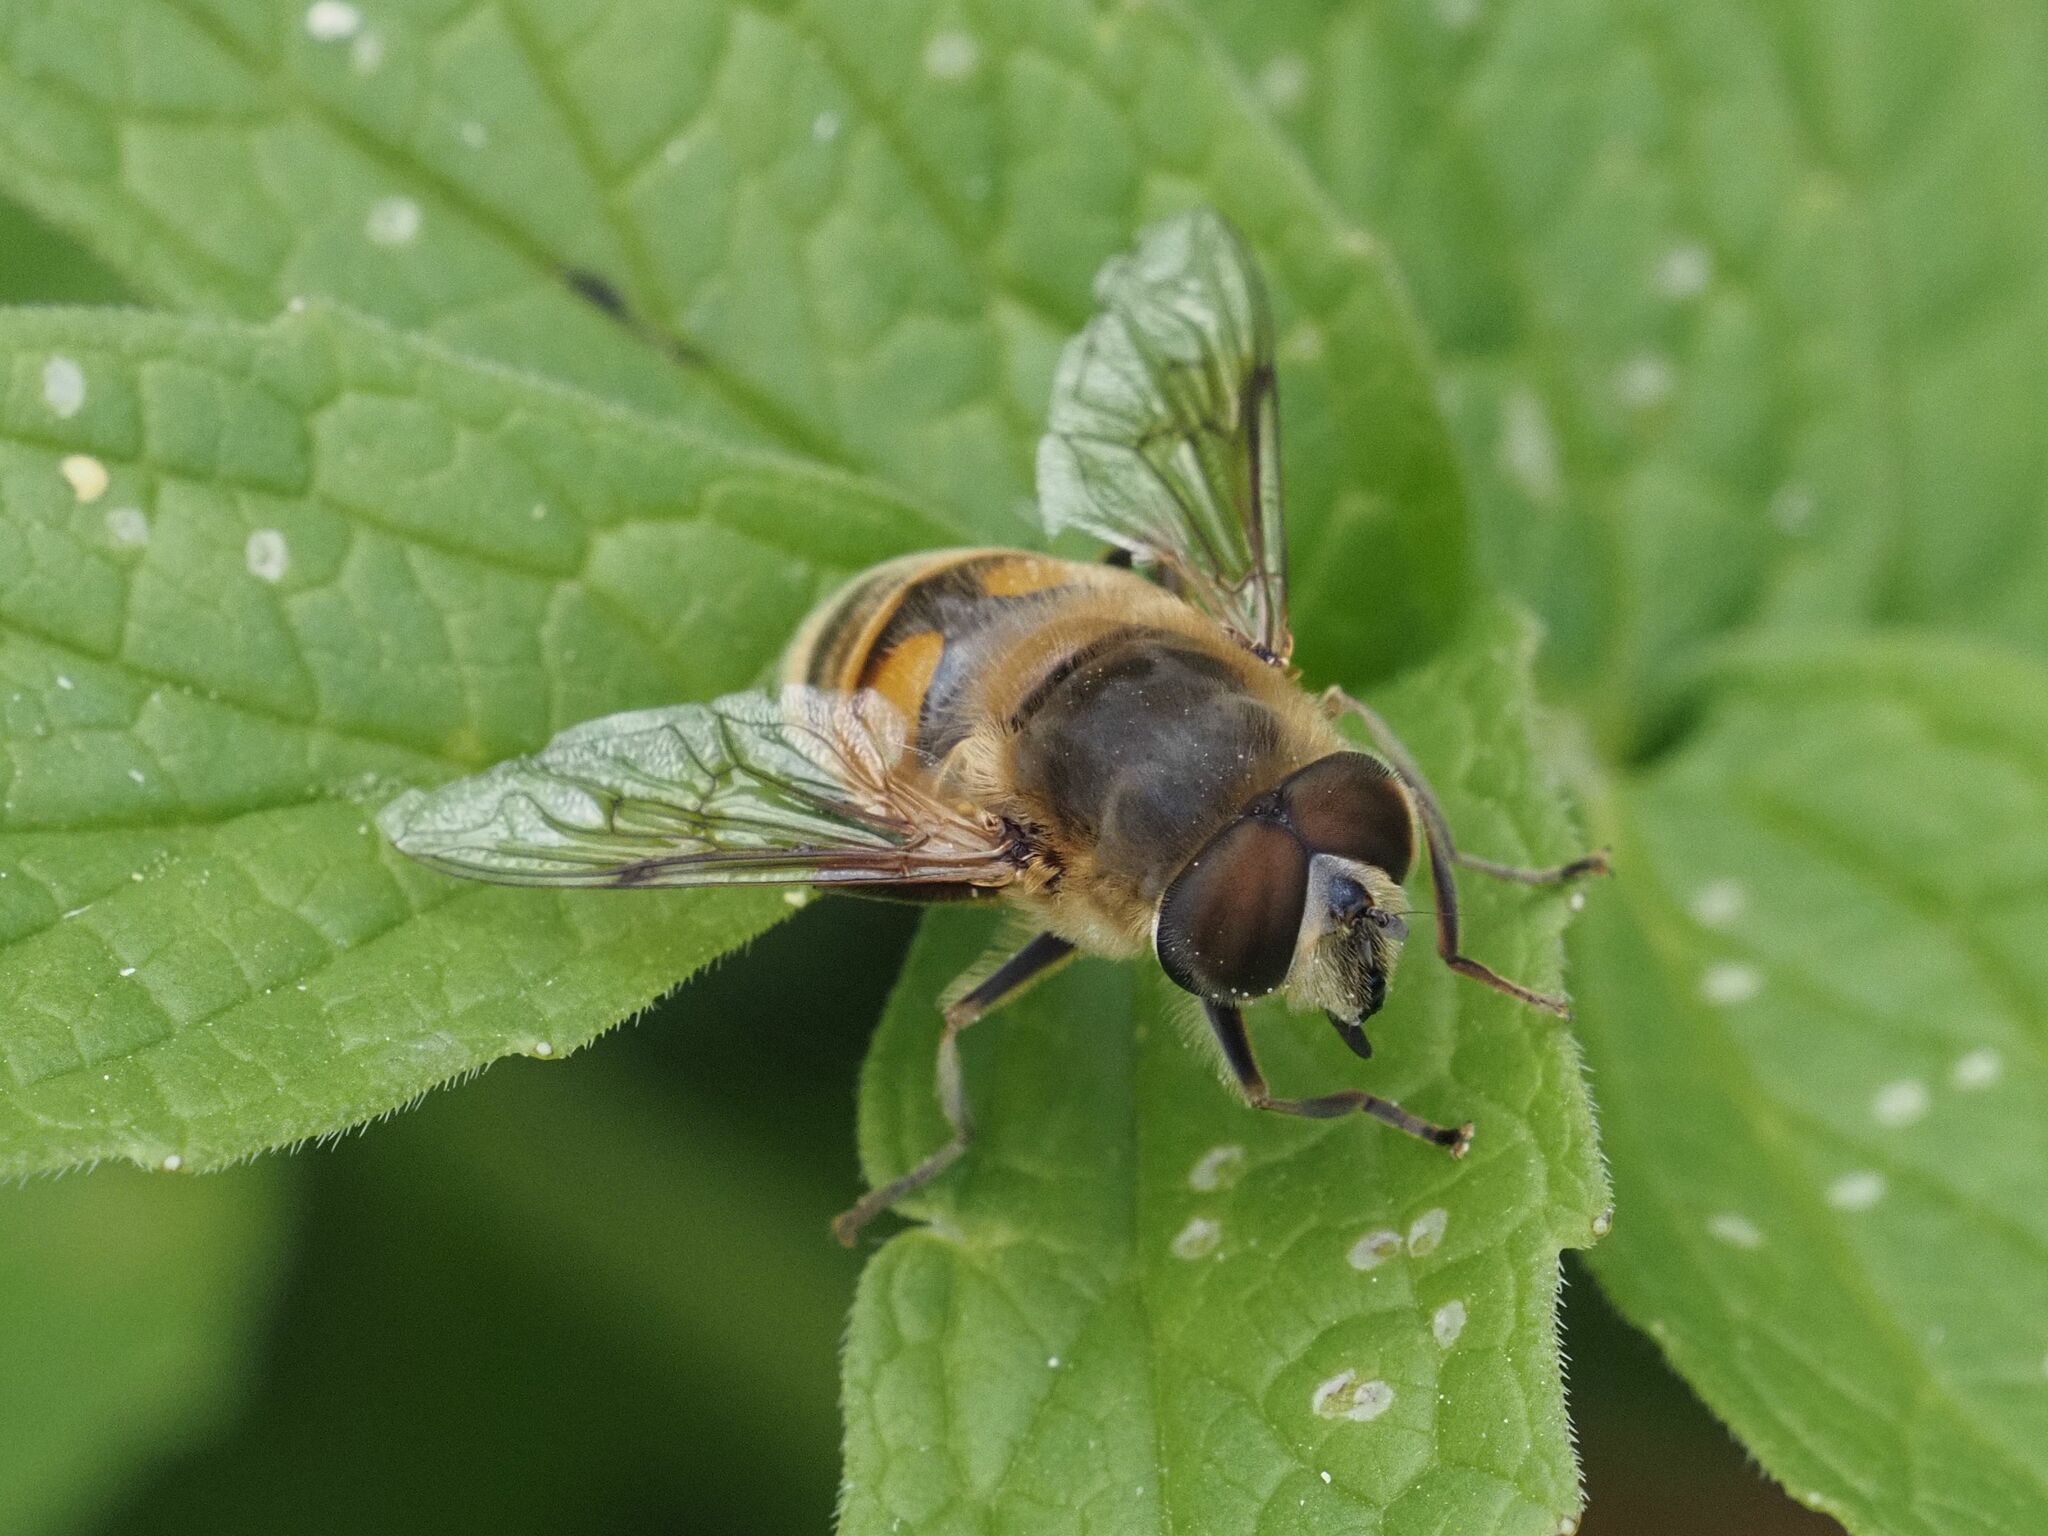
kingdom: Animalia
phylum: Arthropoda
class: Insecta
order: Diptera
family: Syrphidae
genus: Eristalis
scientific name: Eristalis tenax
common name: Drone fly
